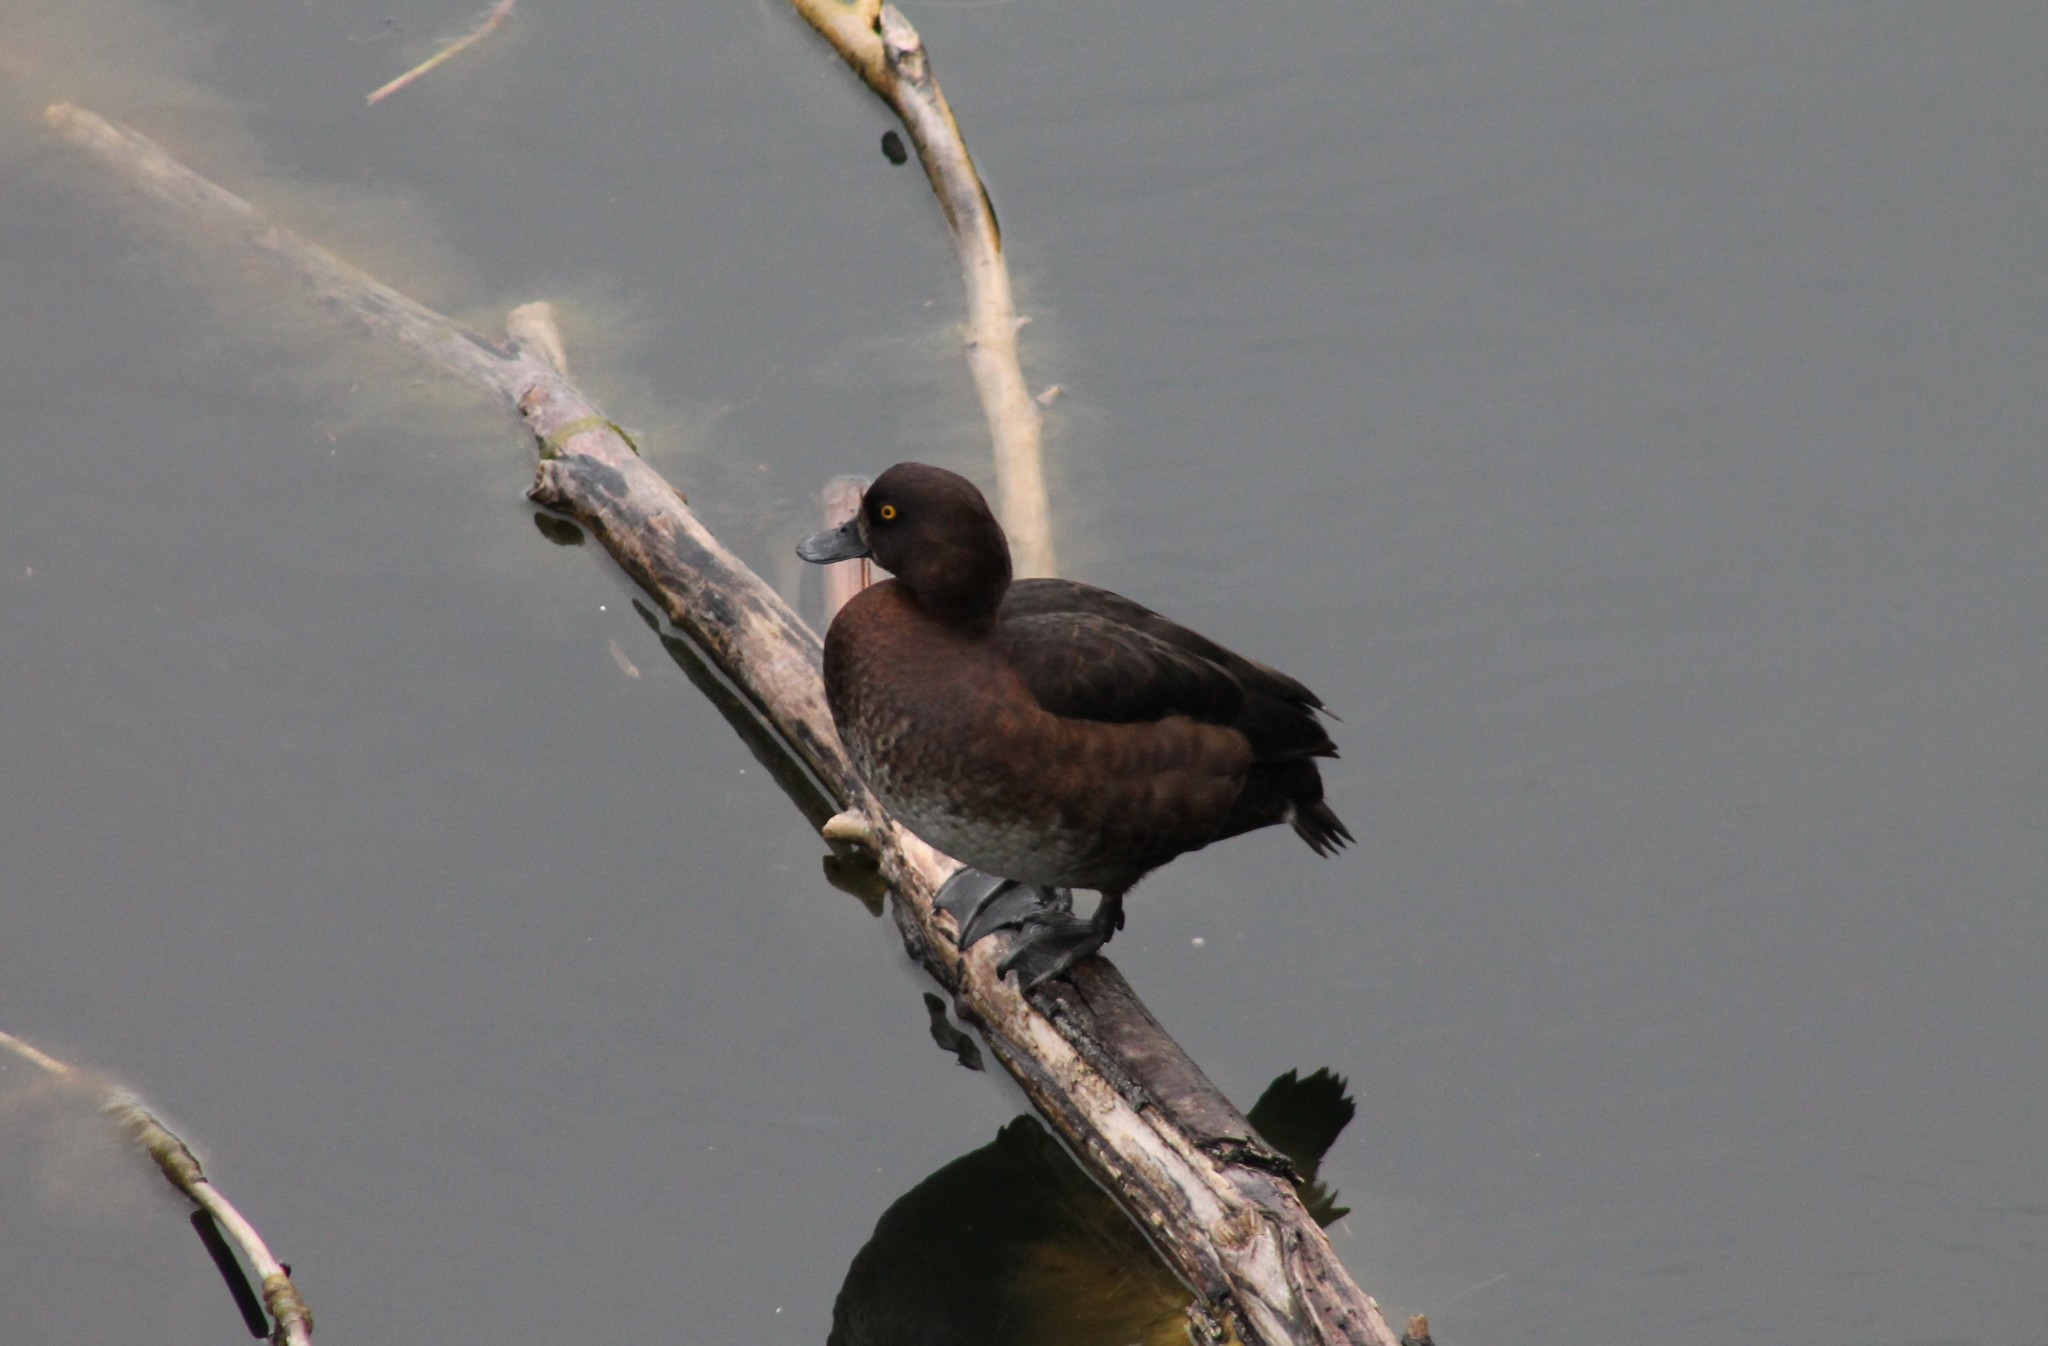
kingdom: Animalia
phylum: Chordata
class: Aves
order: Anseriformes
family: Anatidae
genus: Aythya
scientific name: Aythya fuligula
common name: Tufted duck
